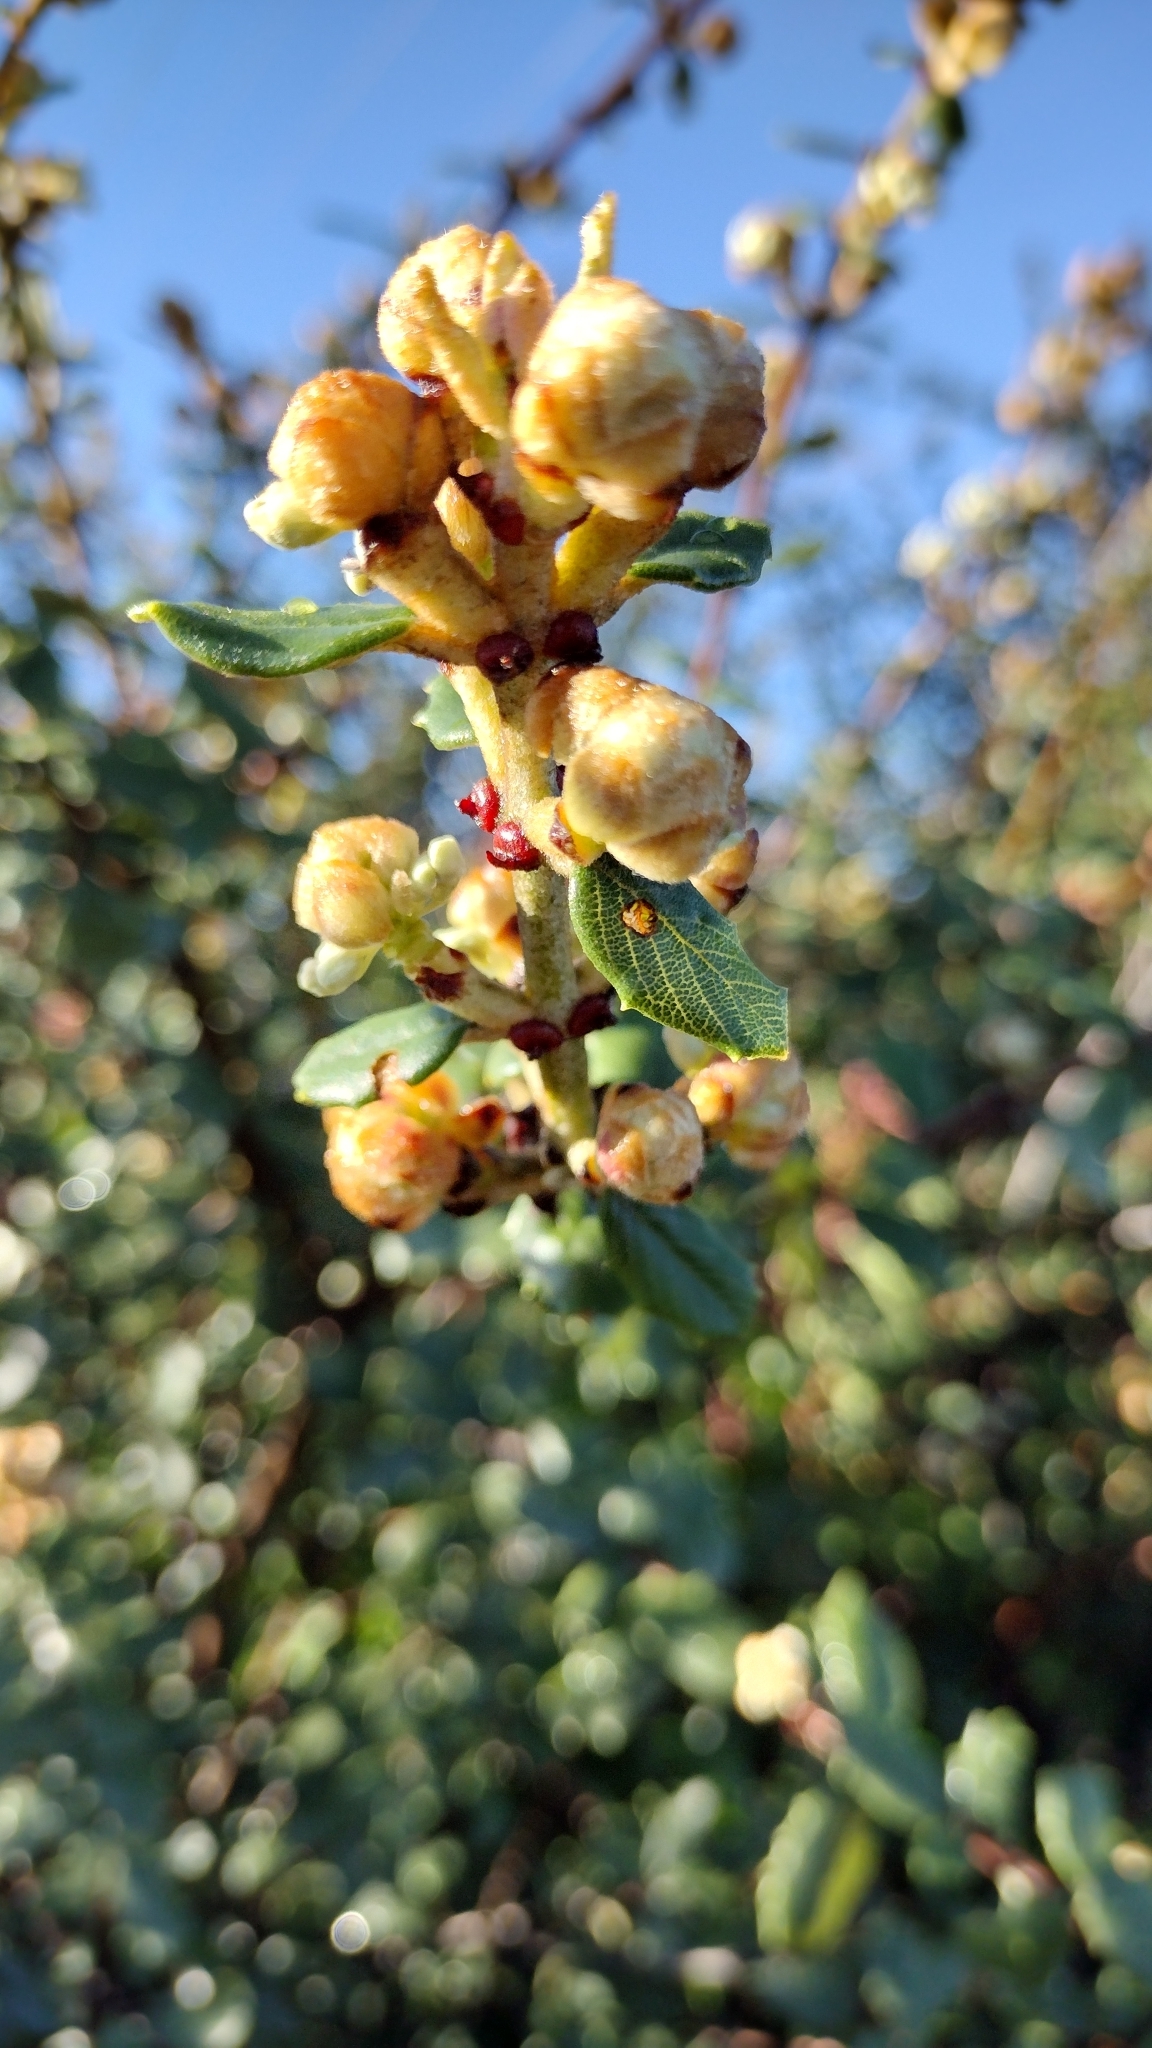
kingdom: Plantae
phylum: Tracheophyta
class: Magnoliopsida
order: Rosales
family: Rhamnaceae
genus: Ceanothus
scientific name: Ceanothus crassifolius
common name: Hoaryleaf ceanothus
